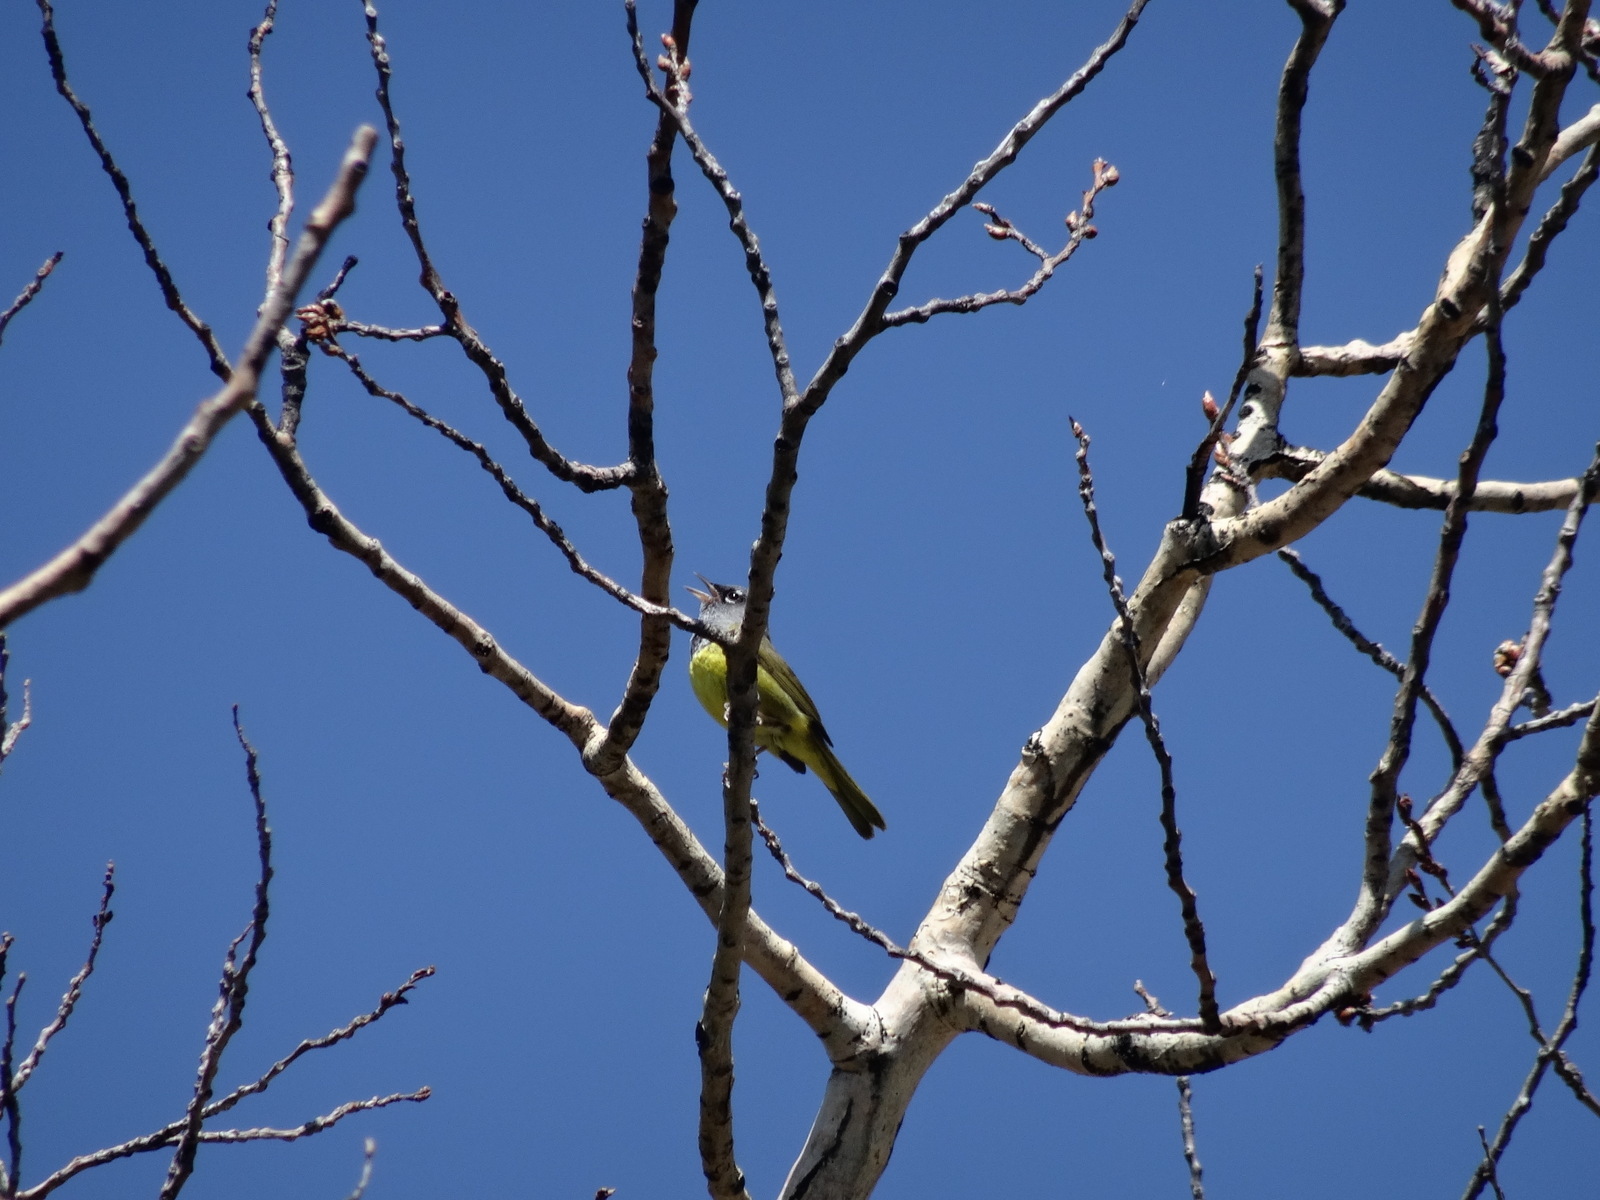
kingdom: Animalia
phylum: Chordata
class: Aves
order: Passeriformes
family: Parulidae
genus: Geothlypis
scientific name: Geothlypis tolmiei
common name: Macgillivray's warbler
